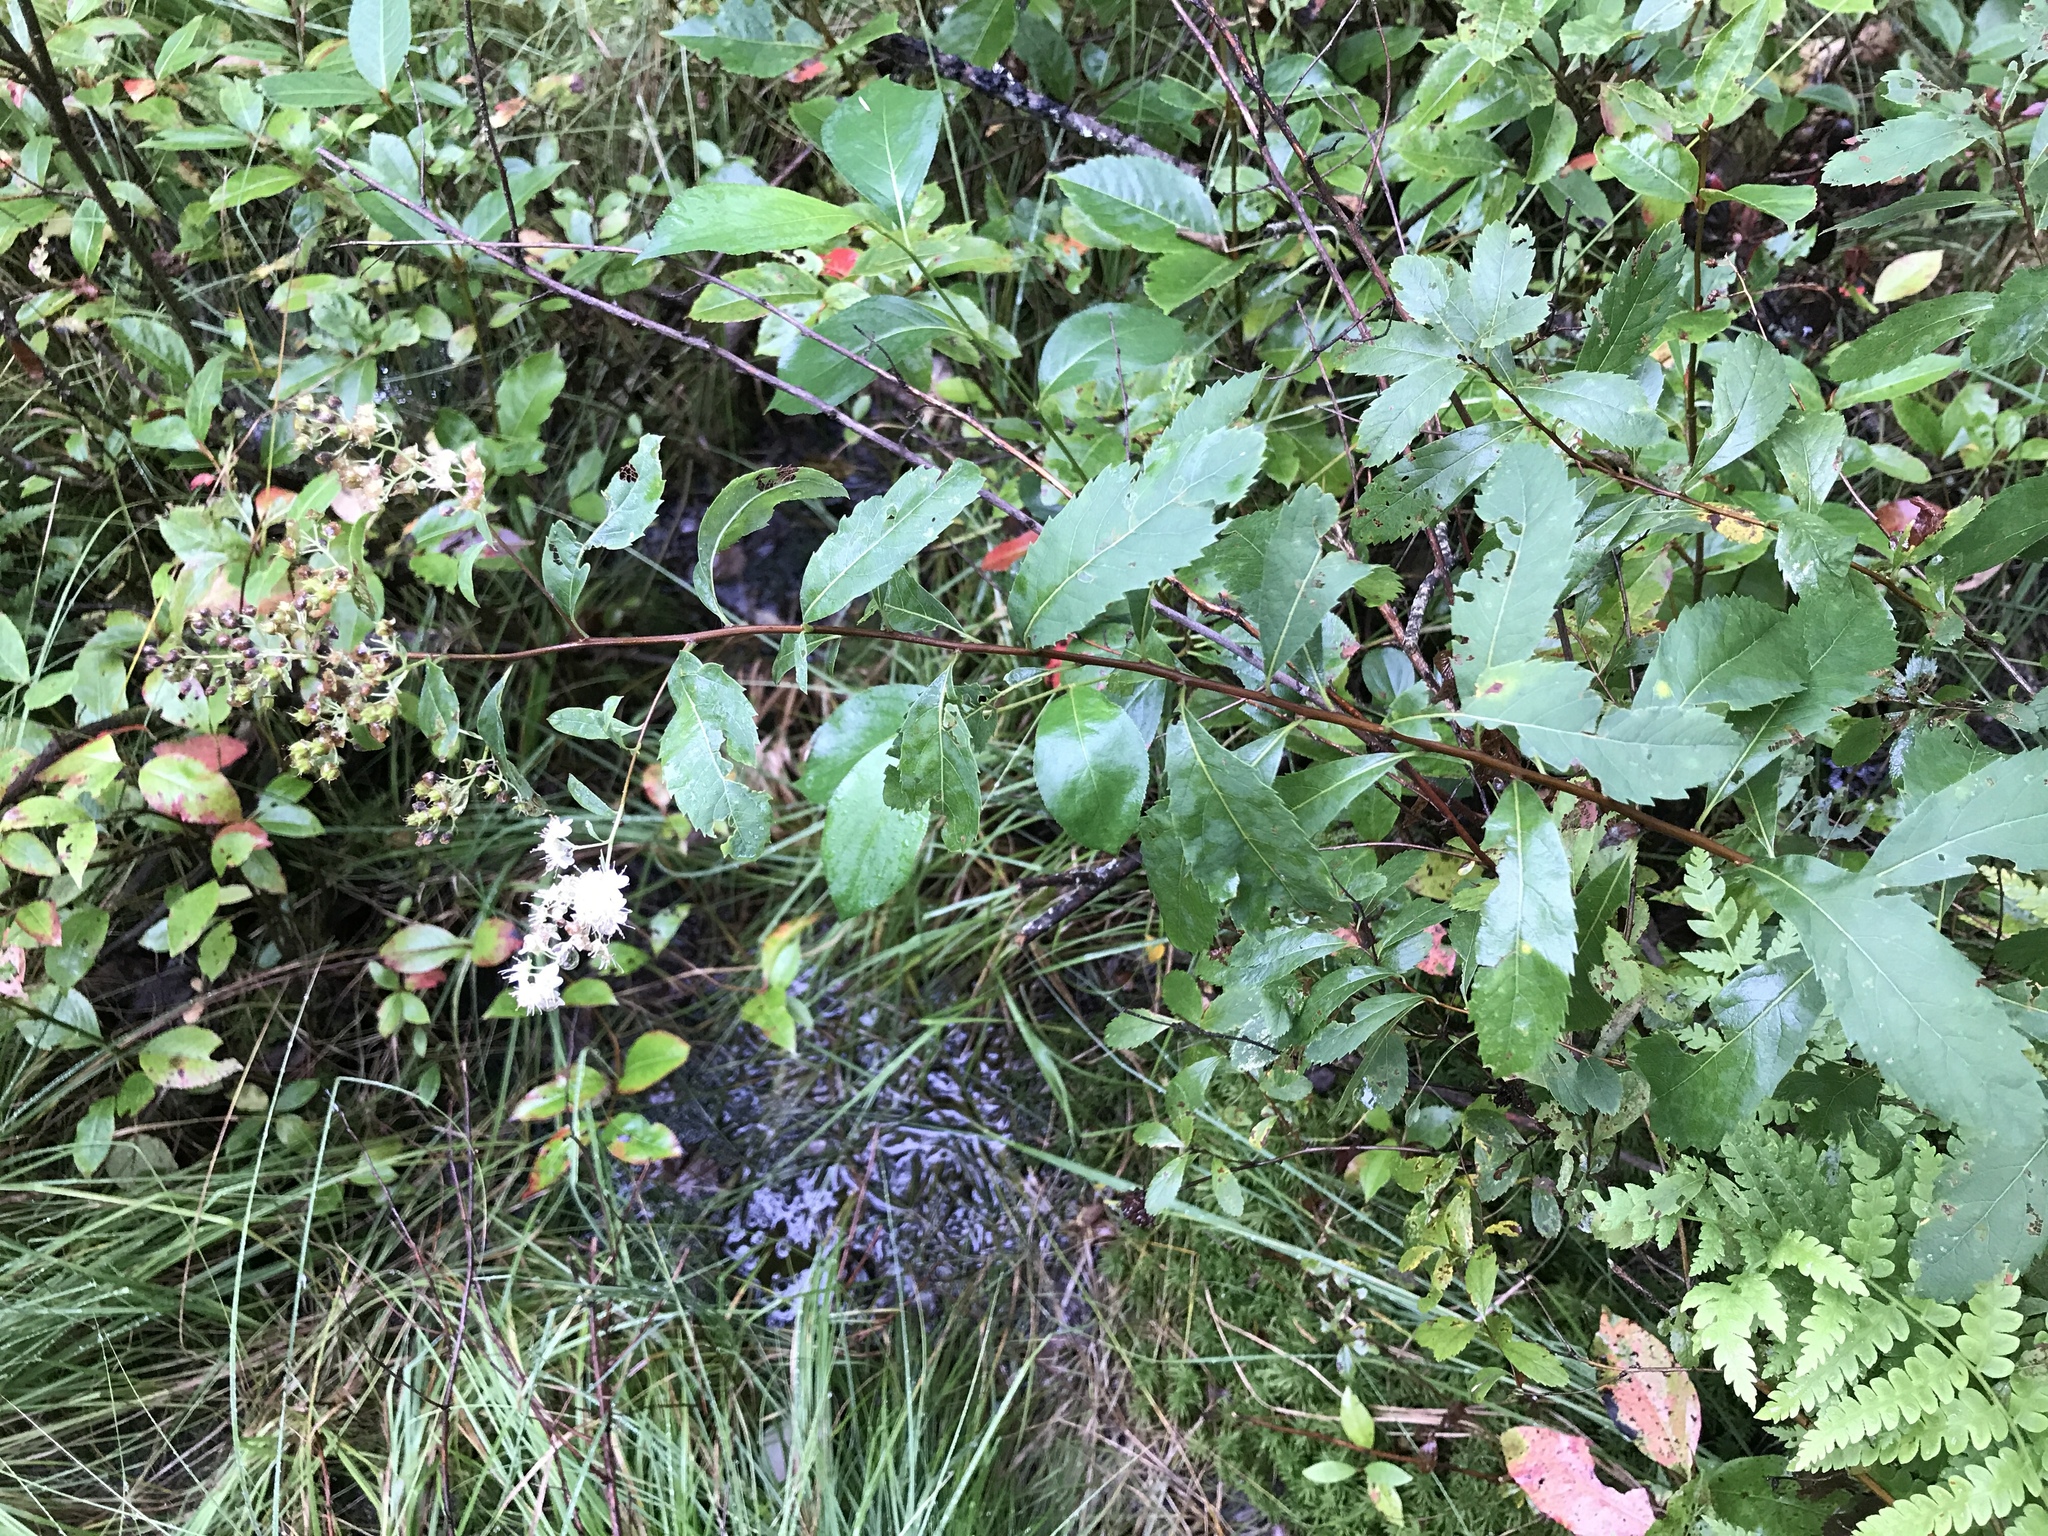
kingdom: Plantae
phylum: Tracheophyta
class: Magnoliopsida
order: Rosales
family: Rosaceae
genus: Spiraea
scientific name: Spiraea alba
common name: Pale bridewort
